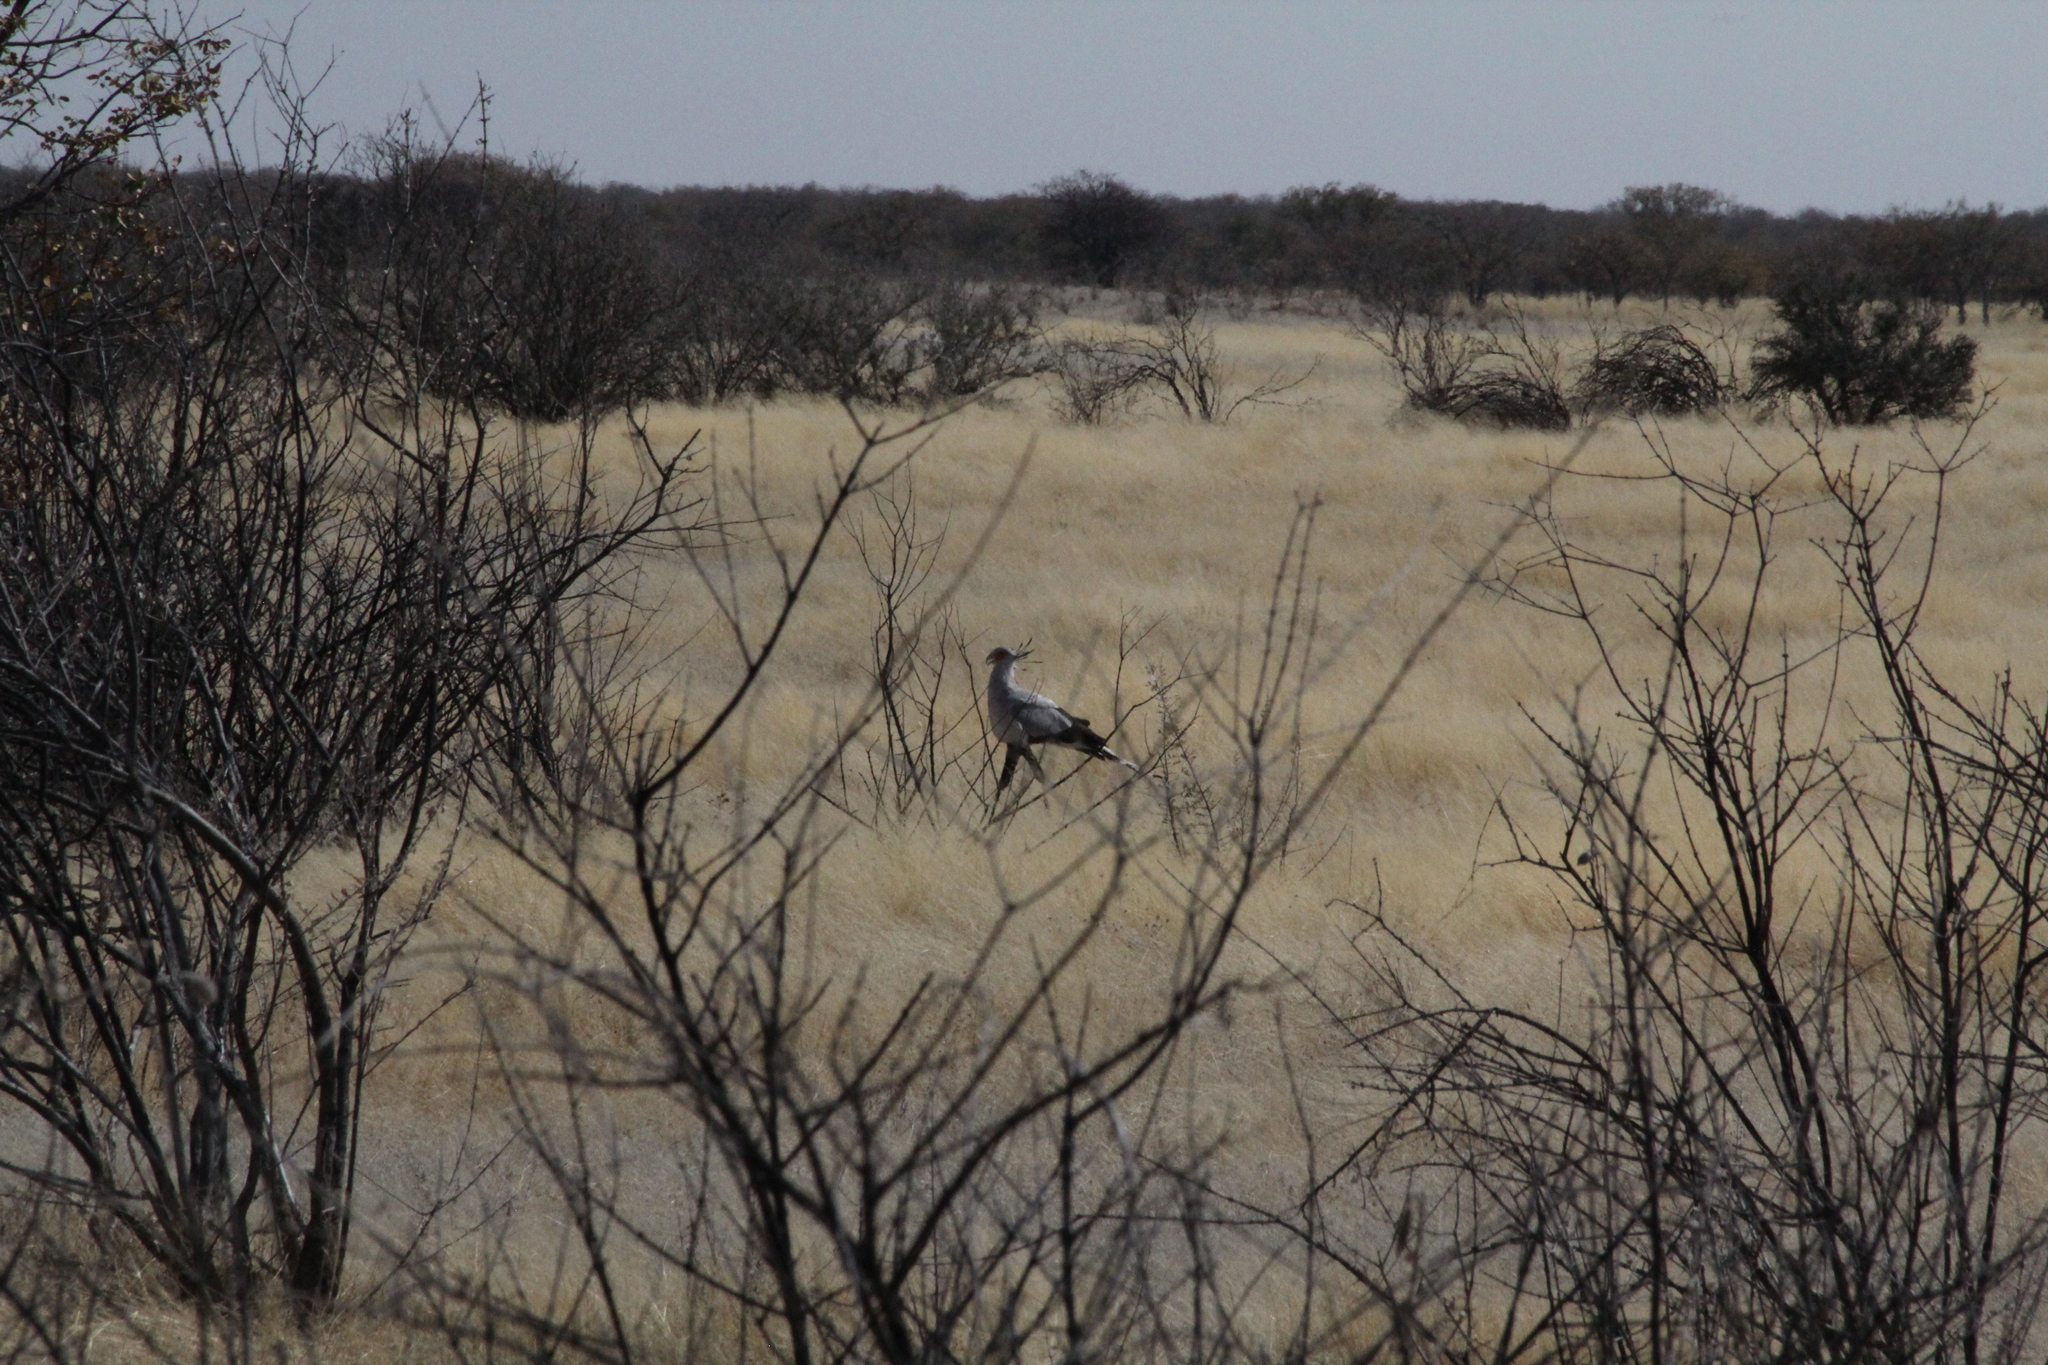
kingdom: Animalia
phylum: Chordata
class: Aves
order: Accipitriformes
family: Sagittariidae
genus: Sagittarius
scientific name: Sagittarius serpentarius
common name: Secretarybird
